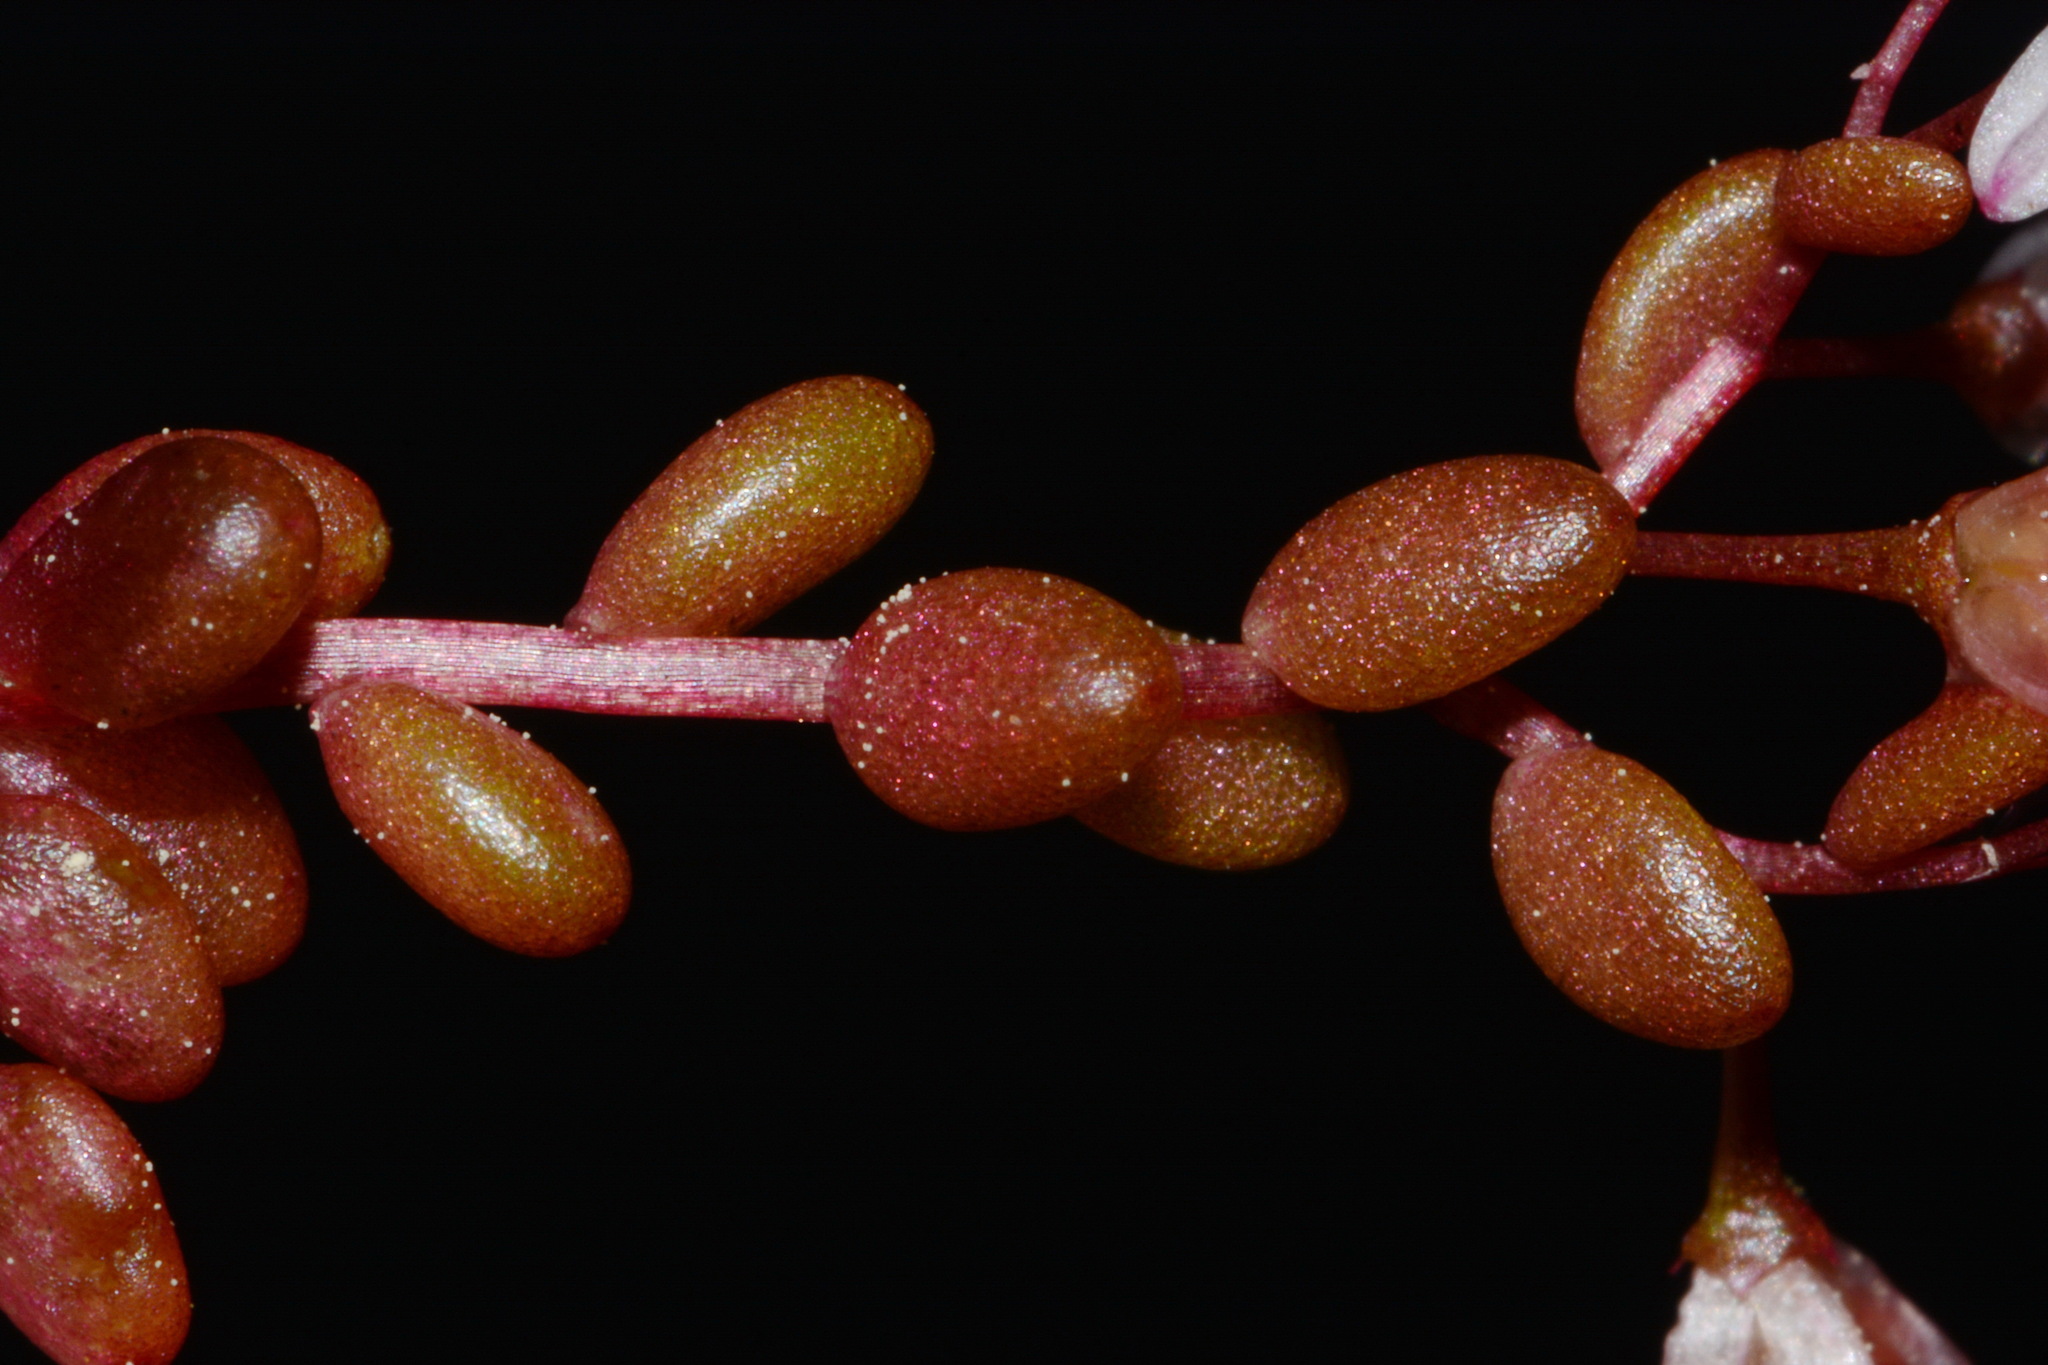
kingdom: Plantae
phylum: Tracheophyta
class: Magnoliopsida
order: Saxifragales
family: Crassulaceae
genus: Sedum
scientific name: Sedum smallii
